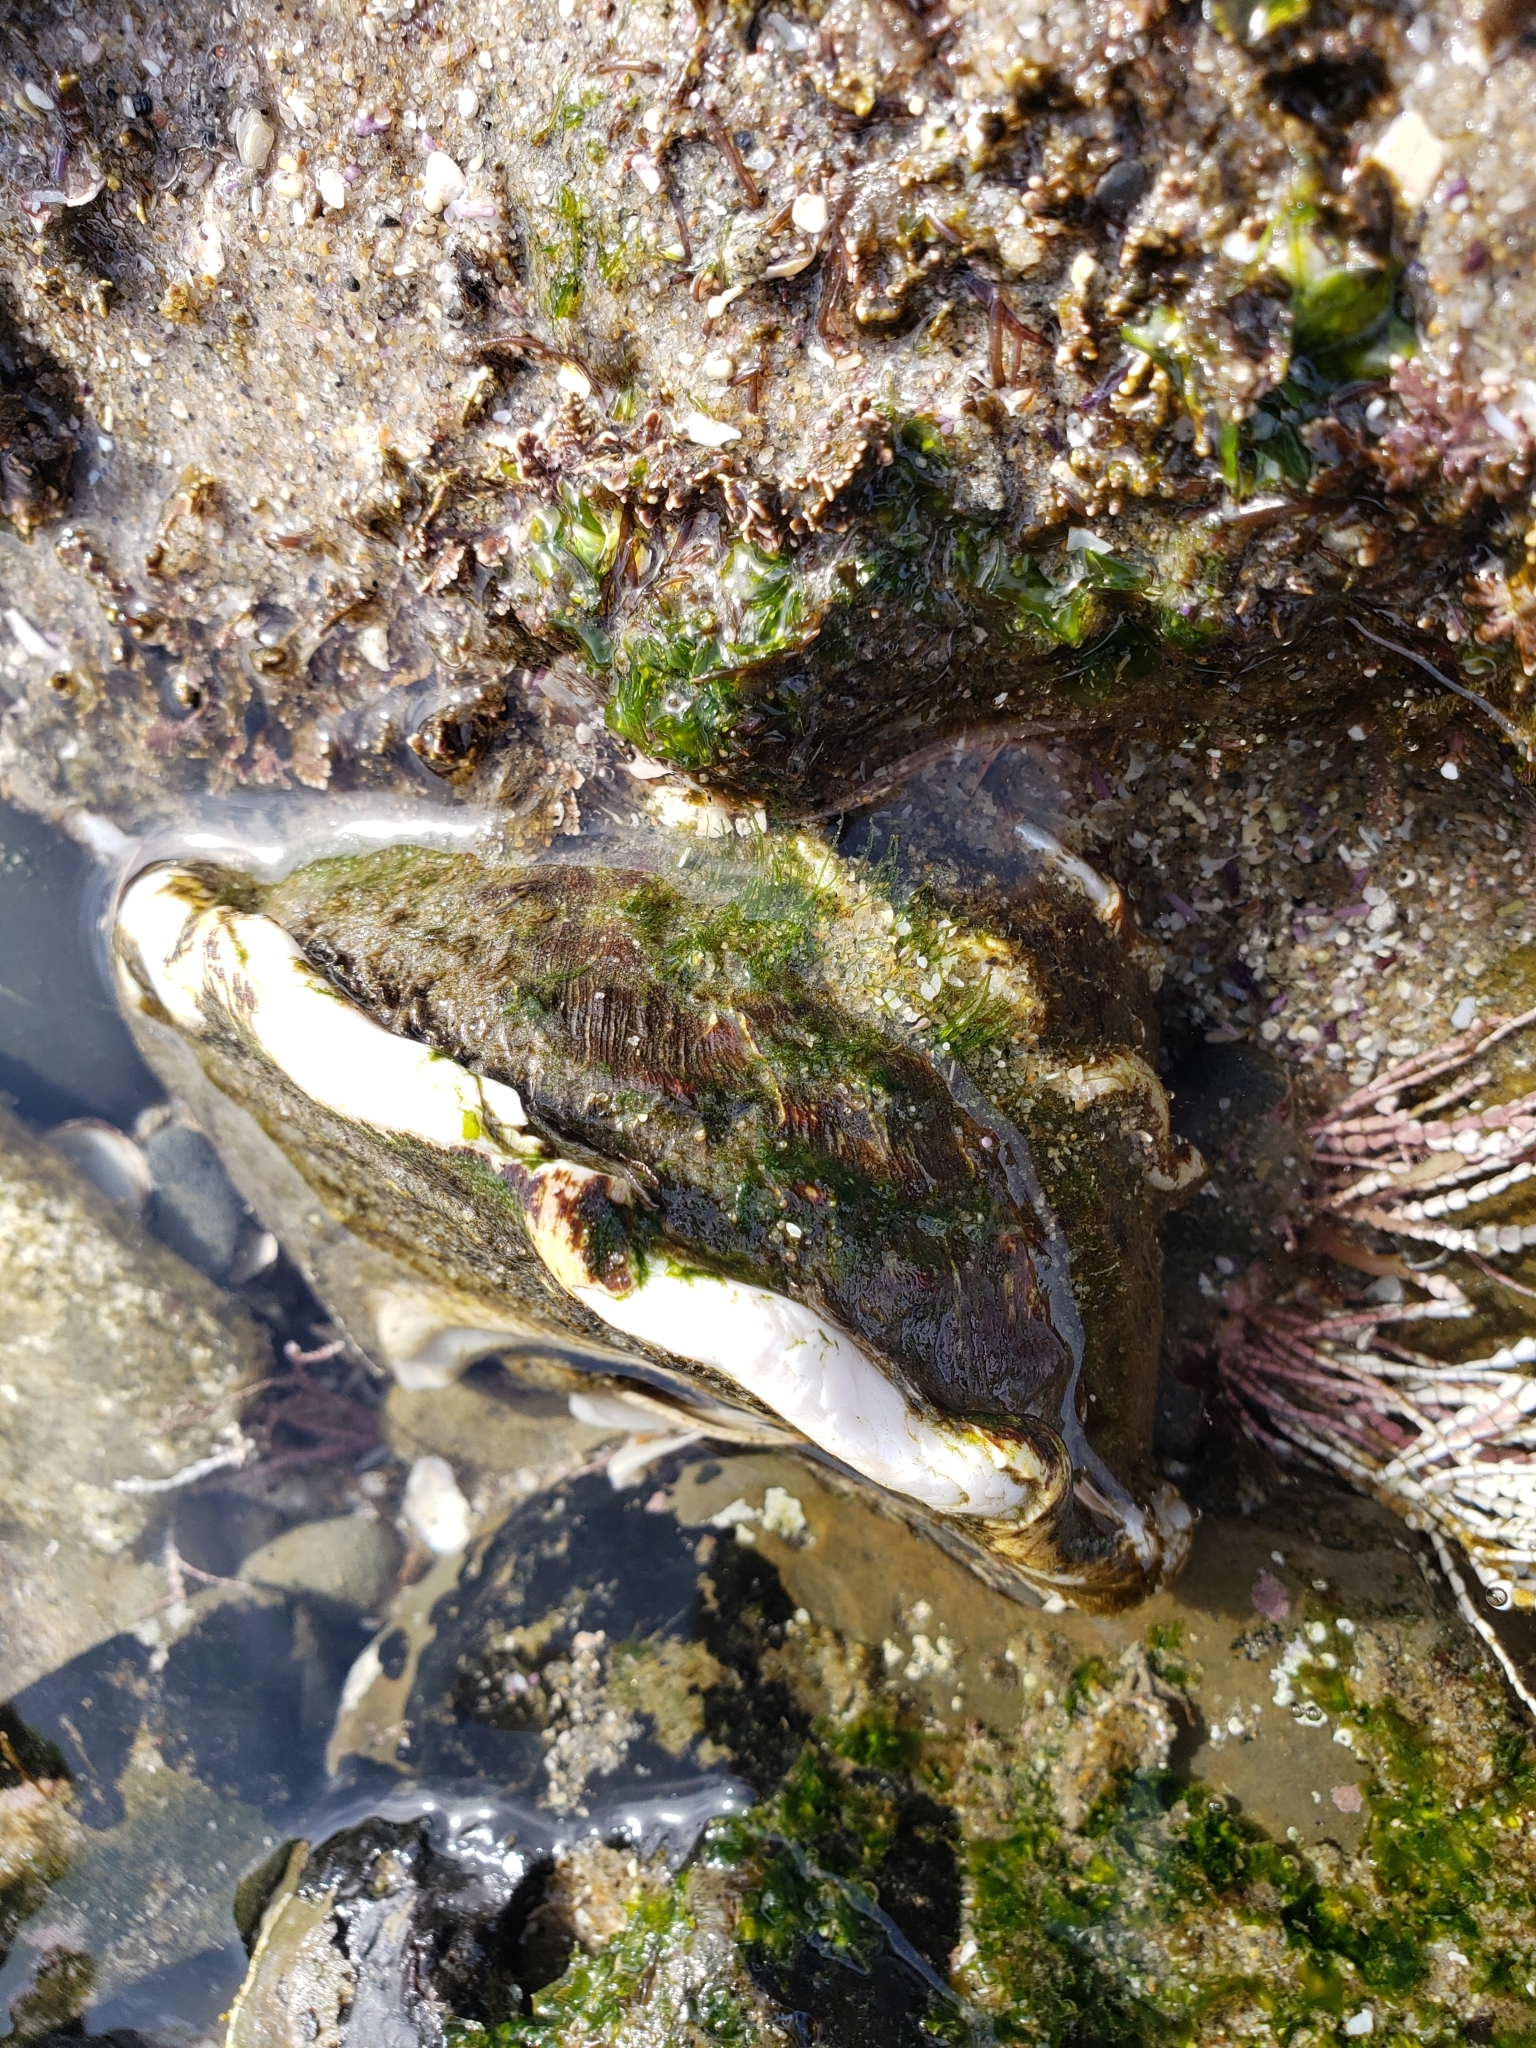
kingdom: Animalia
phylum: Mollusca
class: Gastropoda
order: Trochida
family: Turbinidae
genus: Megastraea
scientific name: Megastraea undosa
